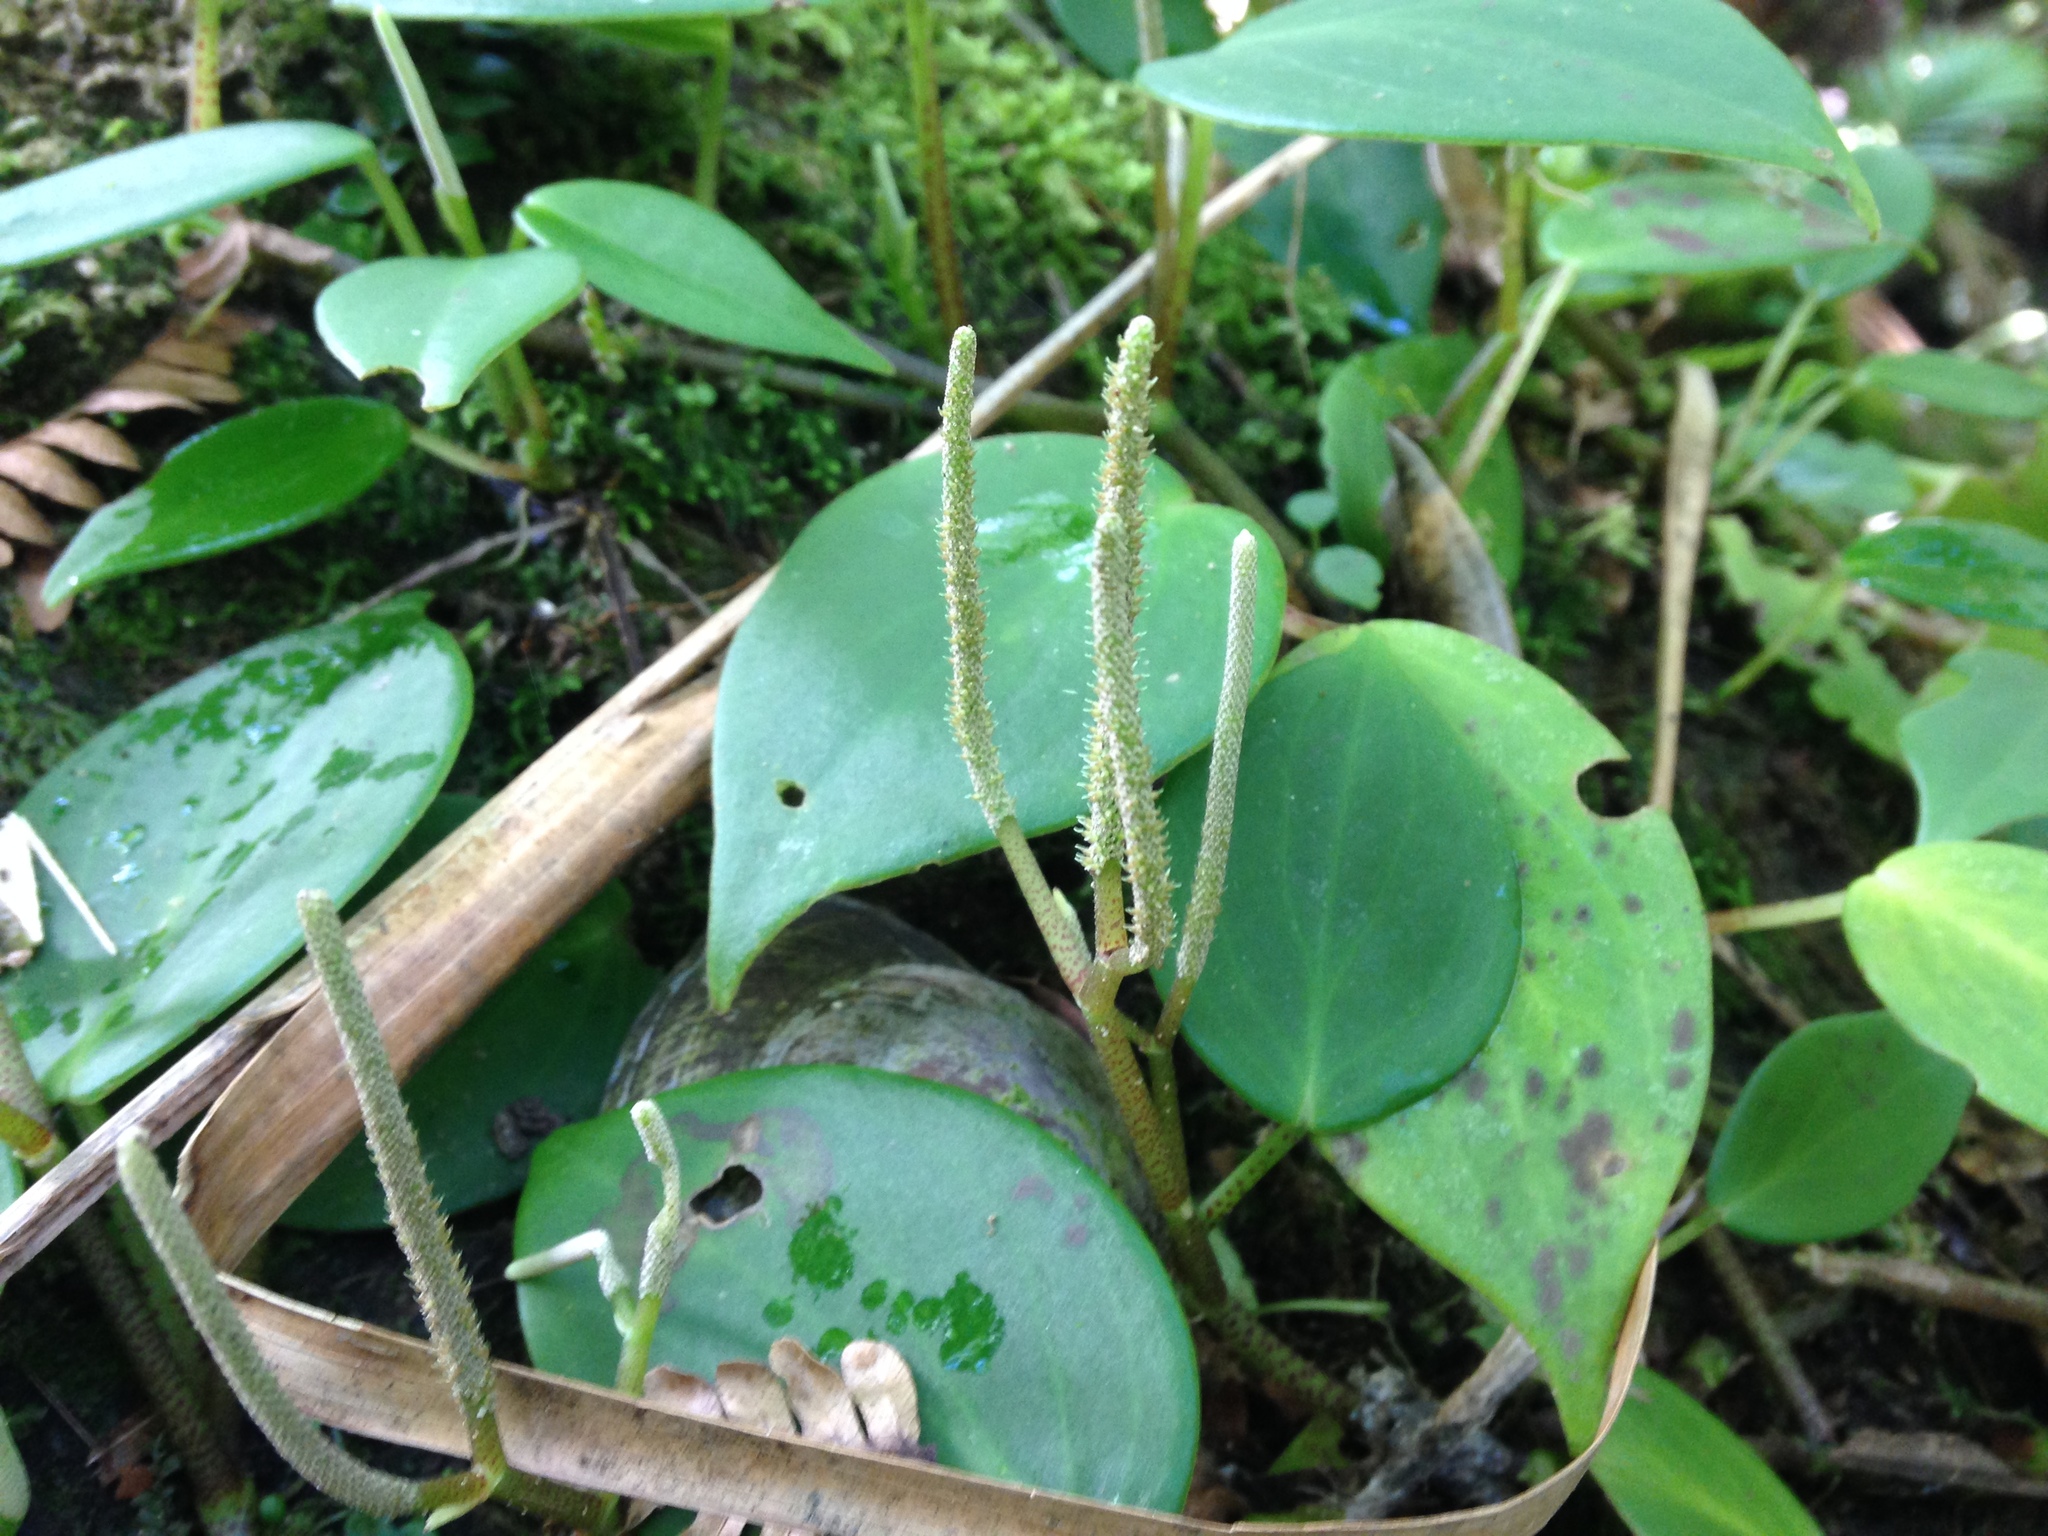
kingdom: Plantae
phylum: Tracheophyta
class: Magnoliopsida
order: Piperales
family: Piperaceae
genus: Peperomia
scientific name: Peperomia distachyos
